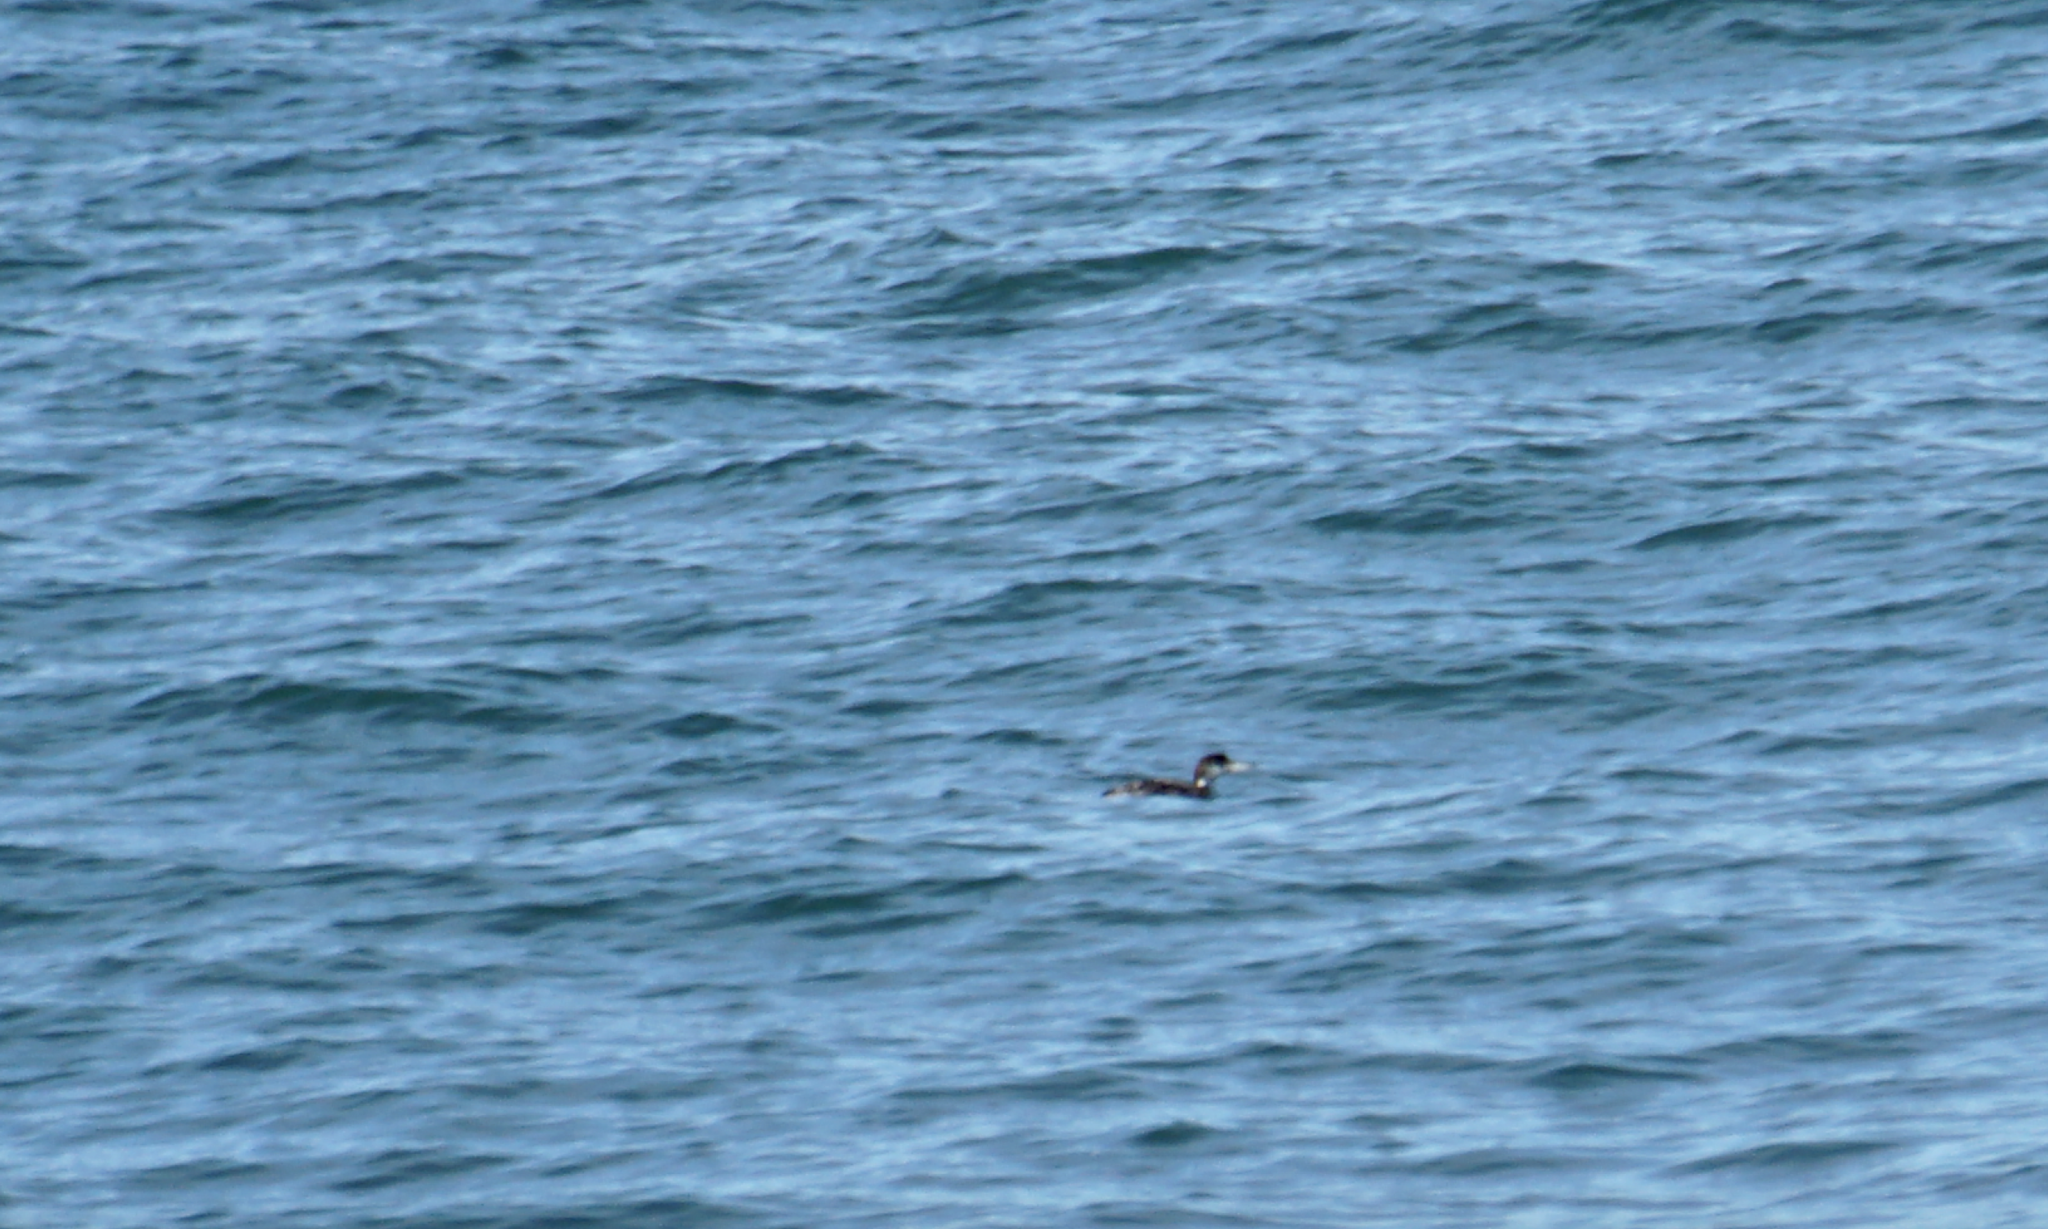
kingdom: Animalia
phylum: Chordata
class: Aves
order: Gaviiformes
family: Gaviidae
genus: Gavia
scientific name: Gavia immer
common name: Common loon
